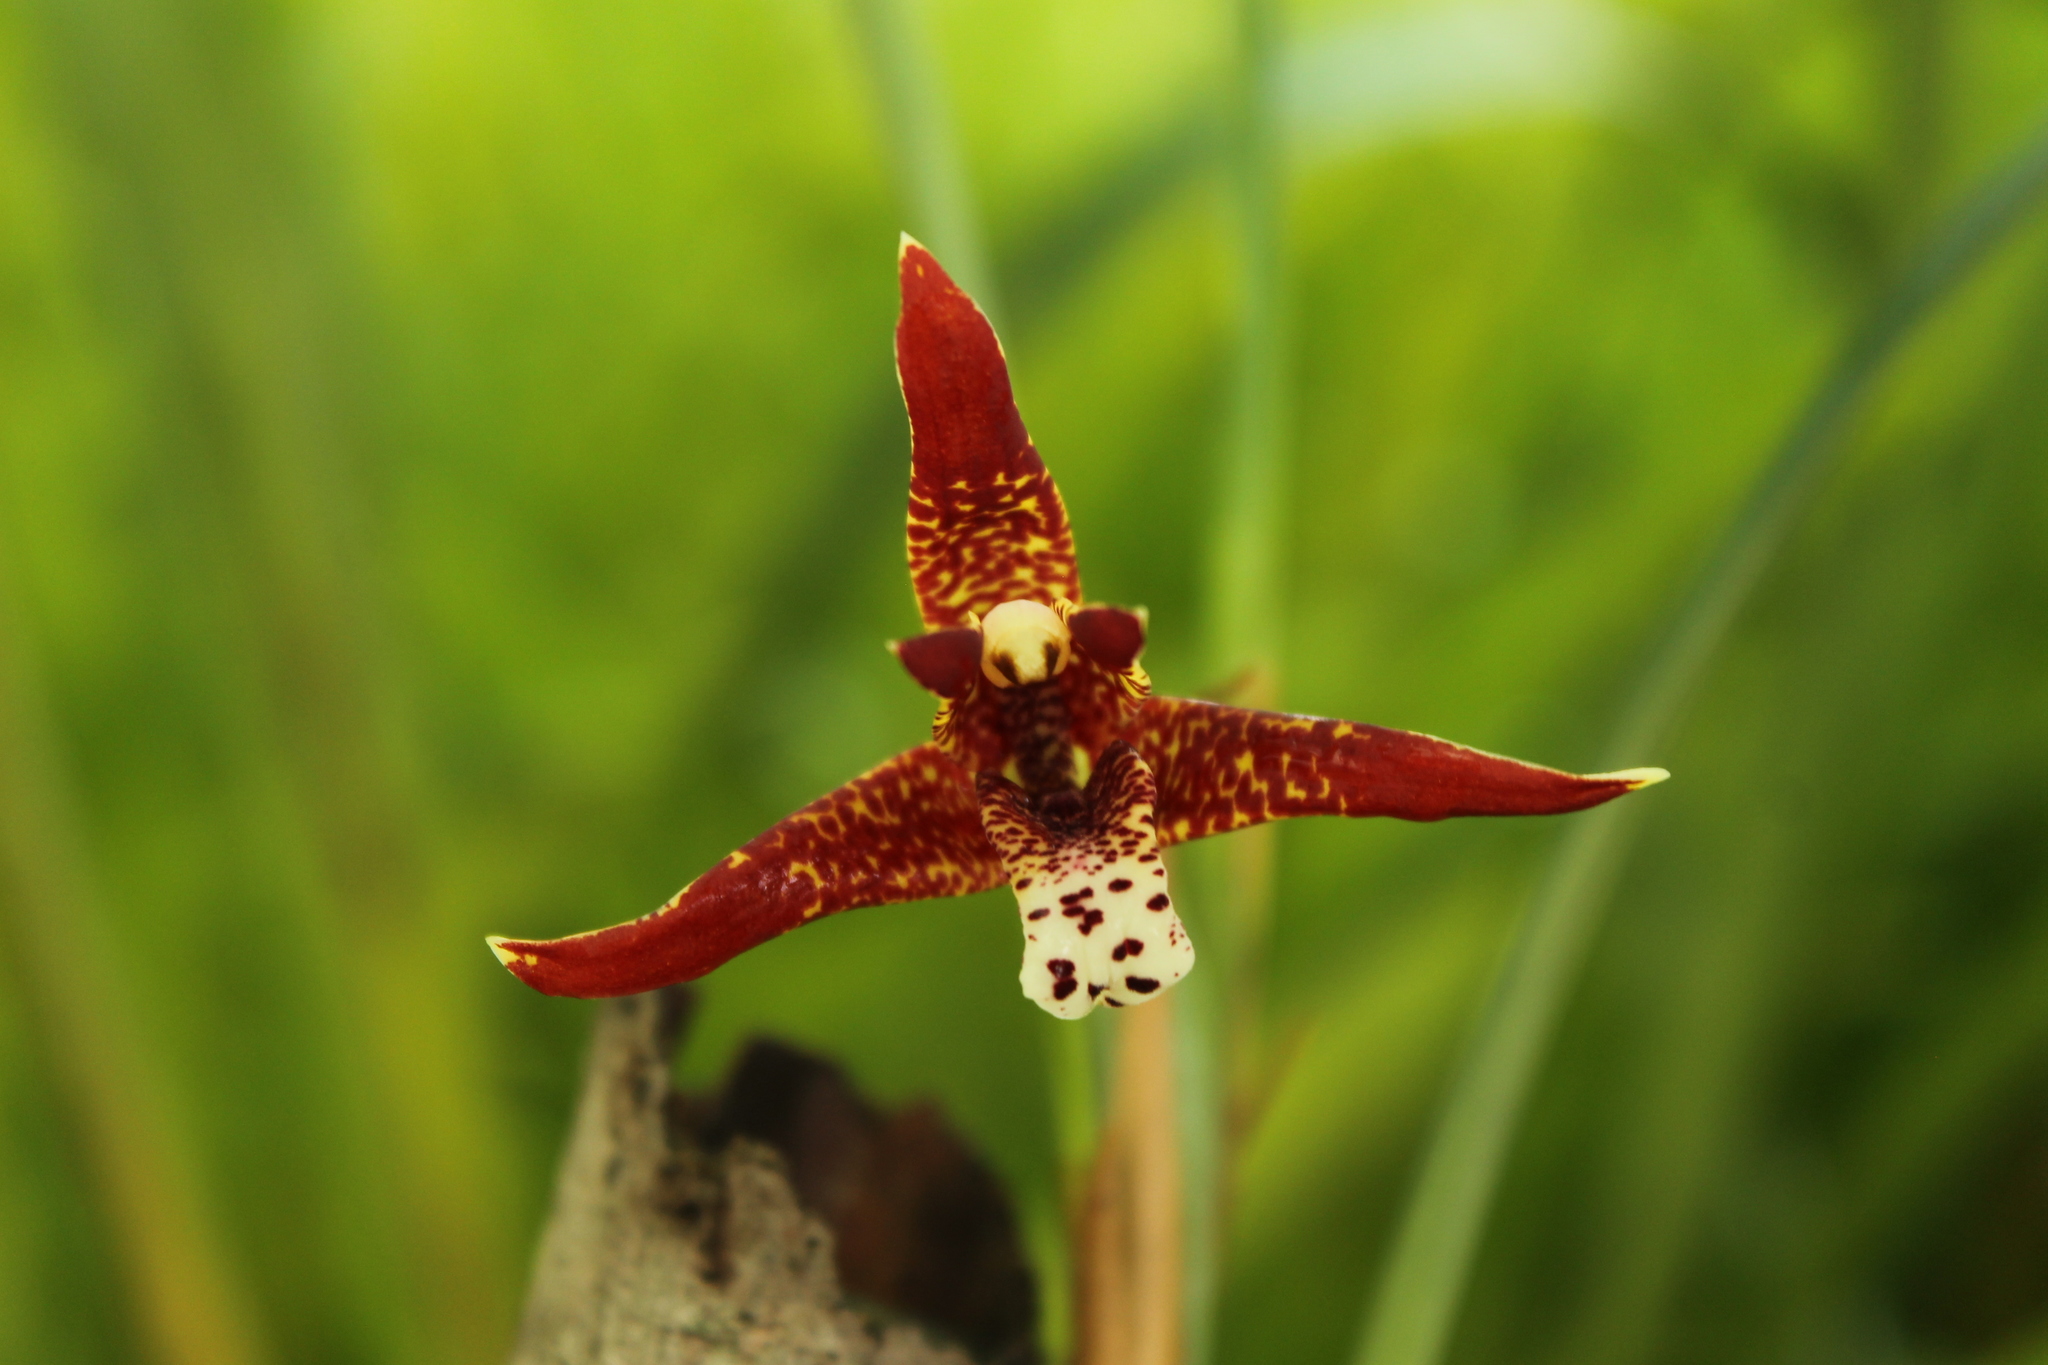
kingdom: Plantae
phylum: Tracheophyta
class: Liliopsida
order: Asparagales
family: Orchidaceae
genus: Maxillaria
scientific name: Maxillaria tenuifolia
